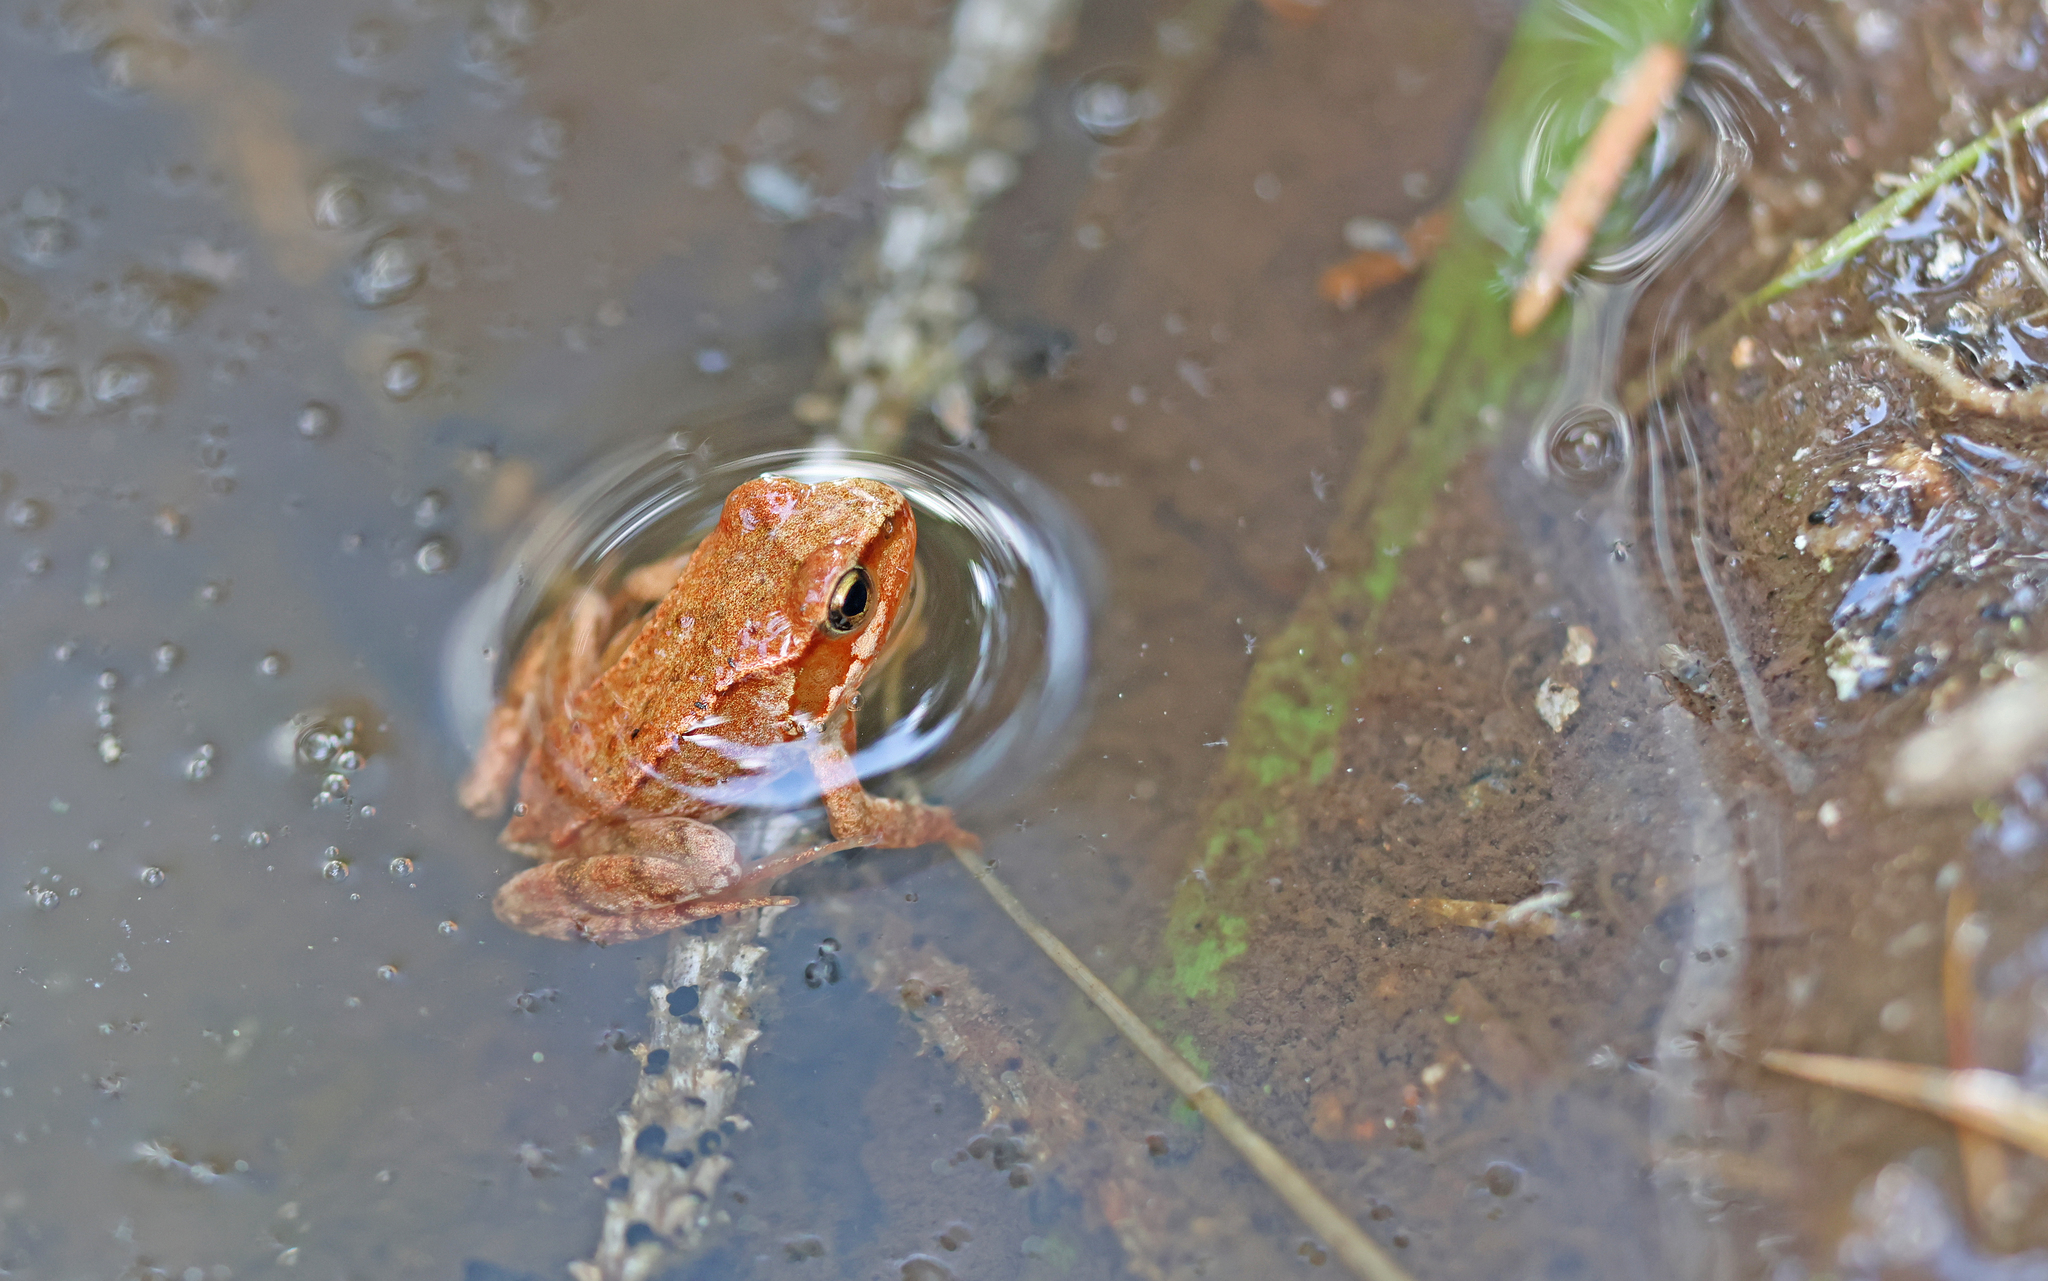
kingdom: Animalia
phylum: Chordata
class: Amphibia
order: Anura
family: Ranidae
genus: Rana
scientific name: Rana temporaria
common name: Common frog
